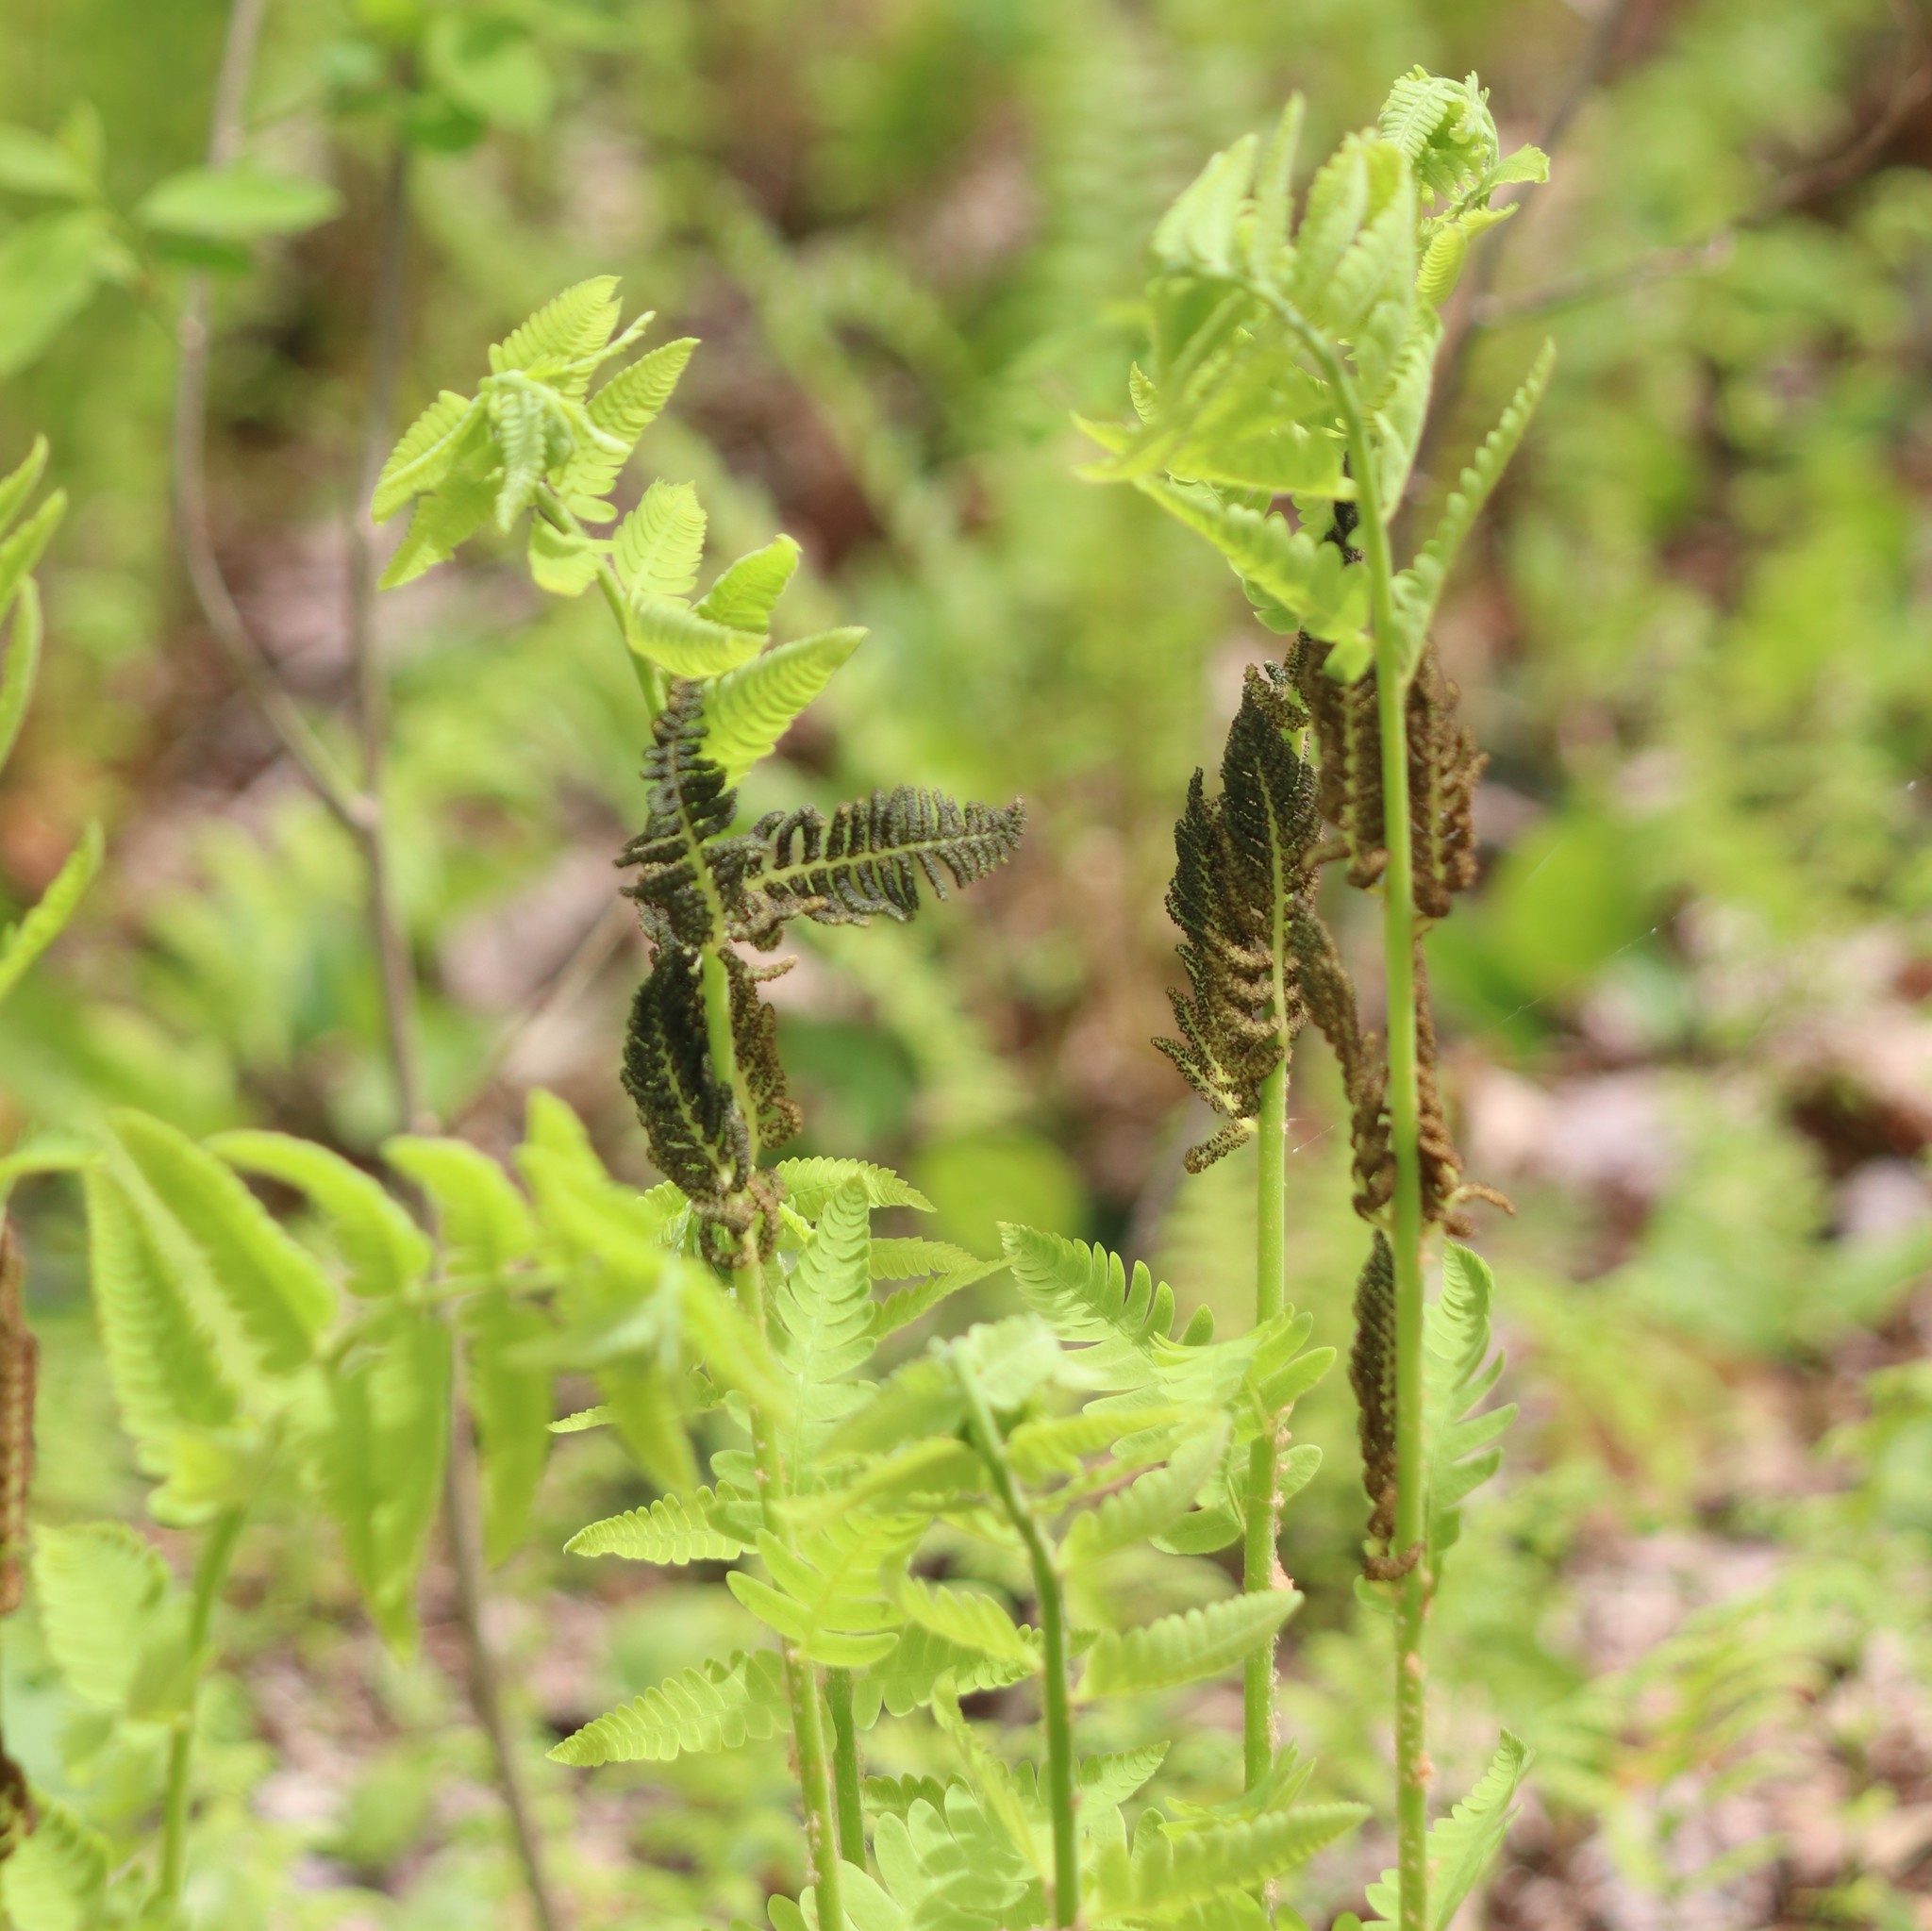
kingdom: Plantae
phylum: Tracheophyta
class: Polypodiopsida
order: Osmundales
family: Osmundaceae
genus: Claytosmunda
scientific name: Claytosmunda claytoniana
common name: Clayton's fern
